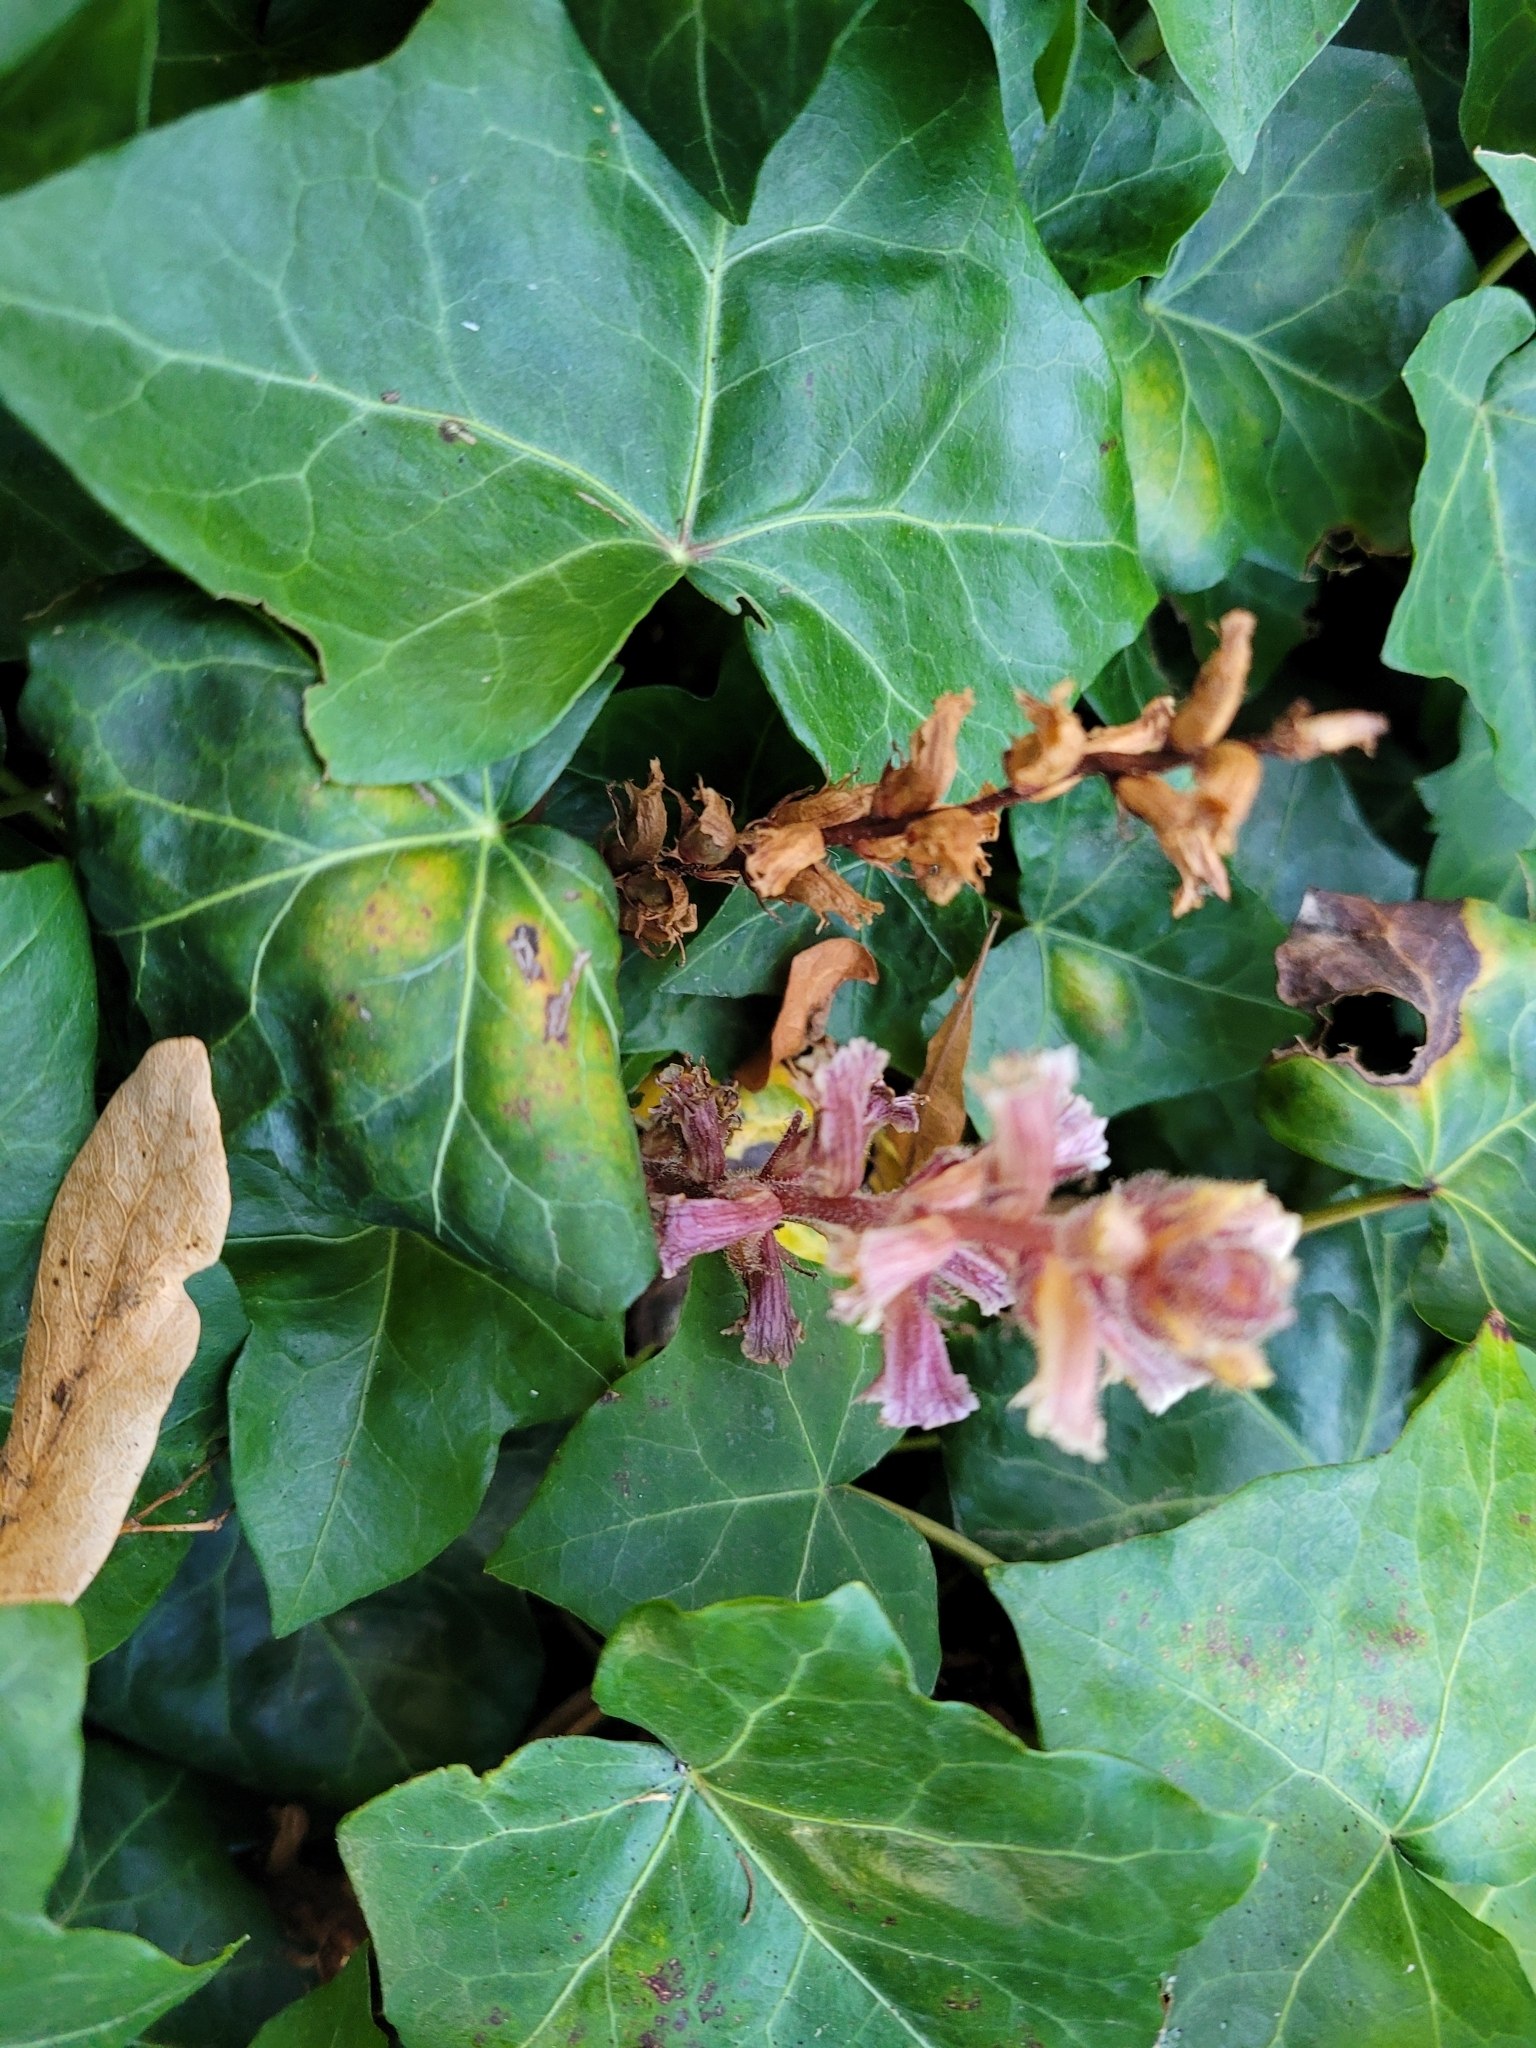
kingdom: Plantae
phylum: Tracheophyta
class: Magnoliopsida
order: Lamiales
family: Orobanchaceae
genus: Orobanche
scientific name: Orobanche hederae
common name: Ivy broomrape
